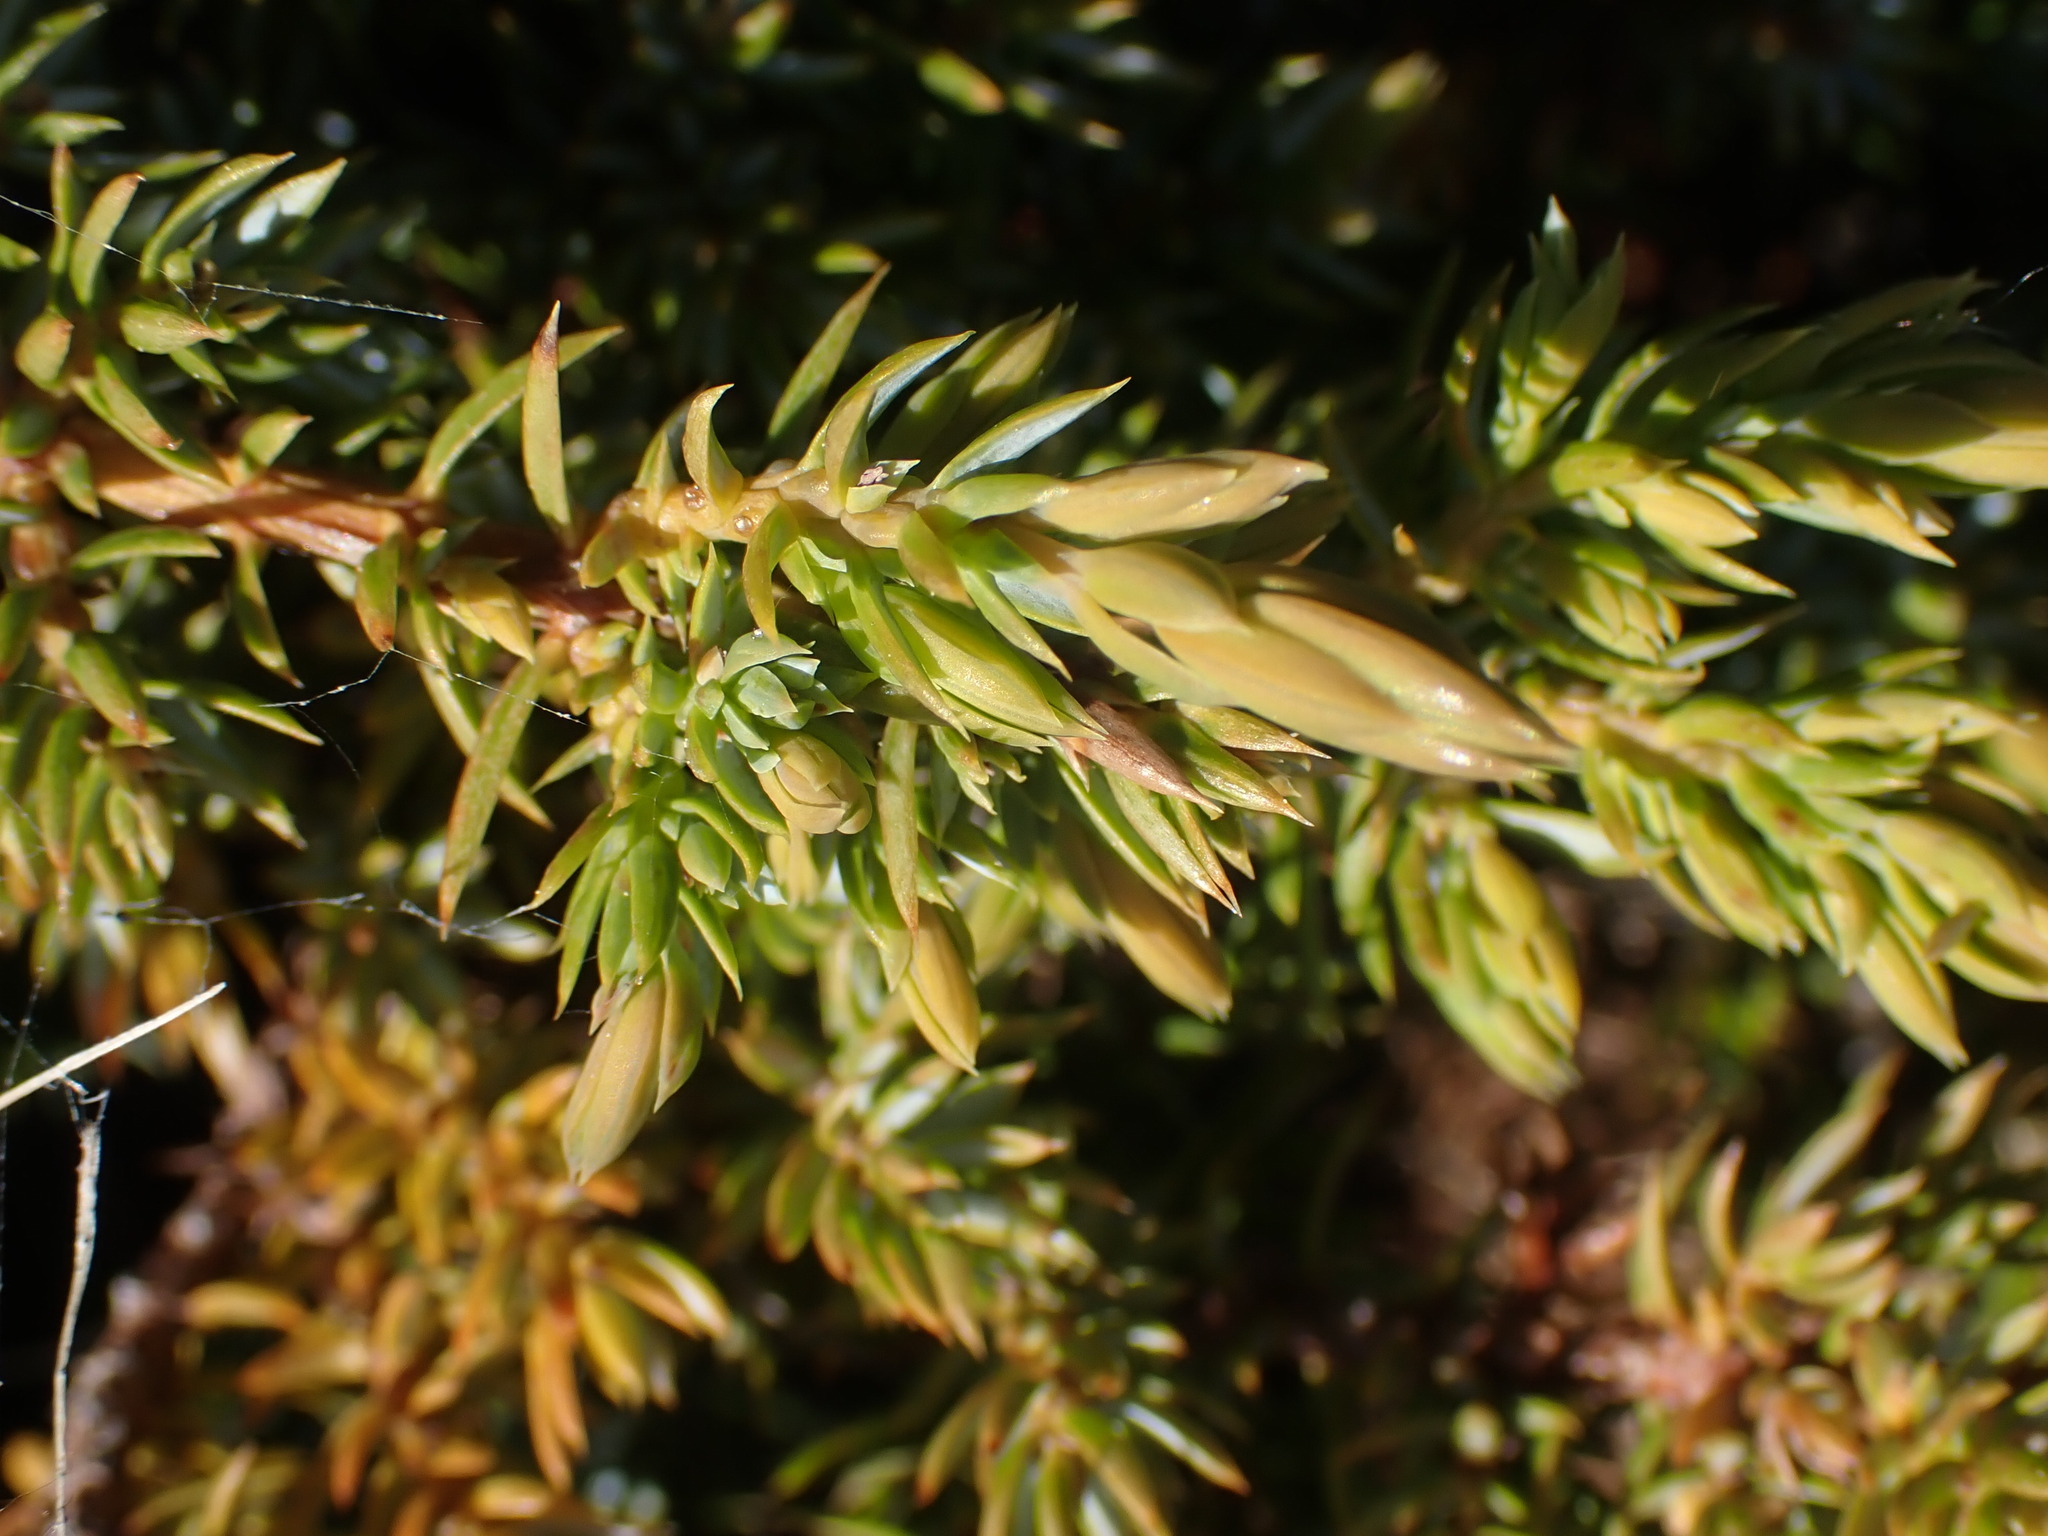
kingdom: Plantae
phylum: Tracheophyta
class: Pinopsida
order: Pinales
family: Cupressaceae
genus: Juniperus
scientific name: Juniperus communis
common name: Common juniper
